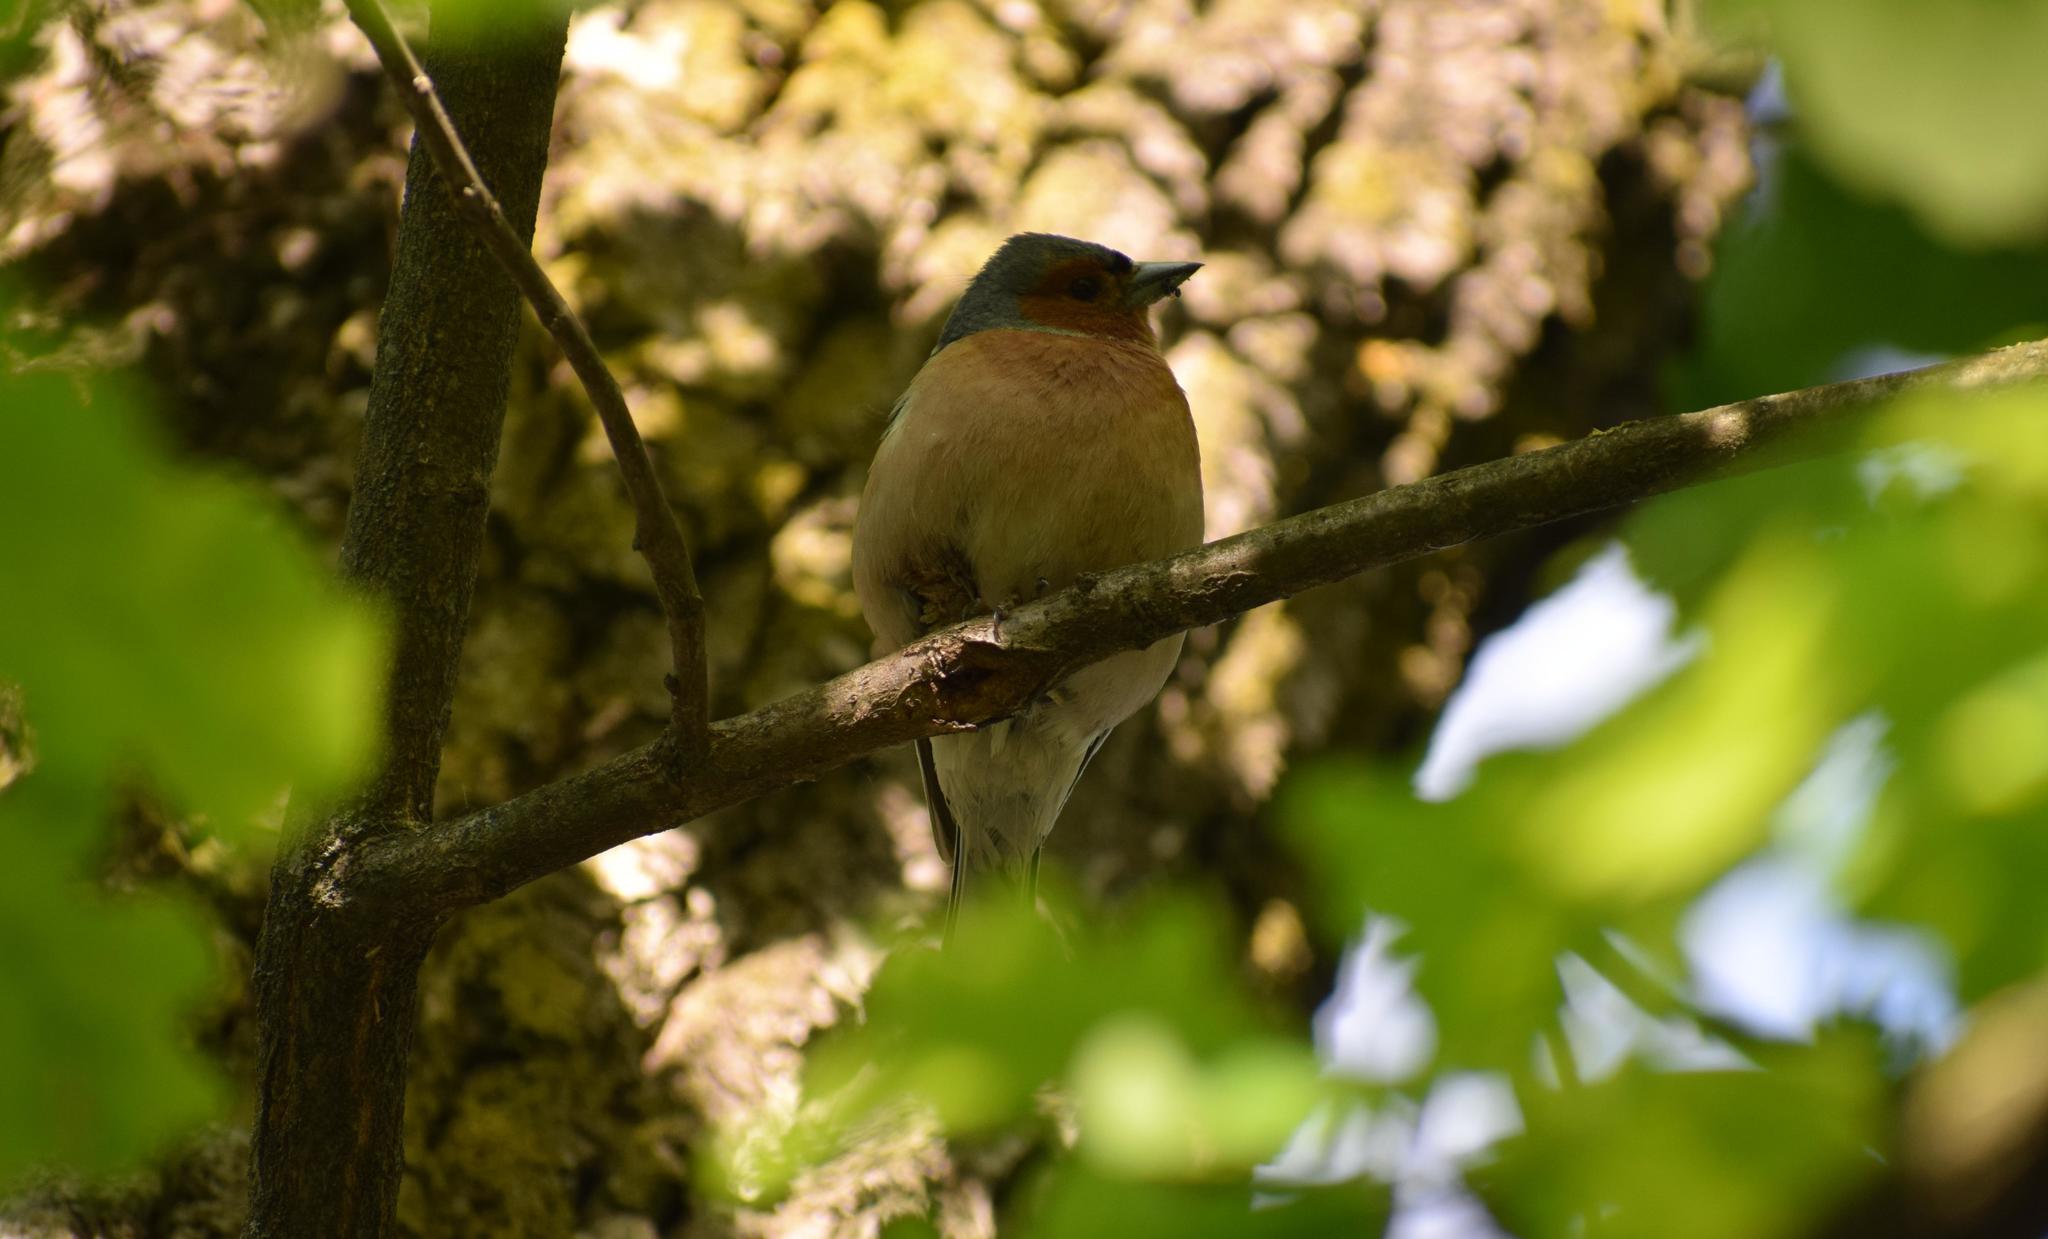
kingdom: Animalia
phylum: Chordata
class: Aves
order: Passeriformes
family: Fringillidae
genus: Fringilla
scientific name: Fringilla coelebs
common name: Common chaffinch
